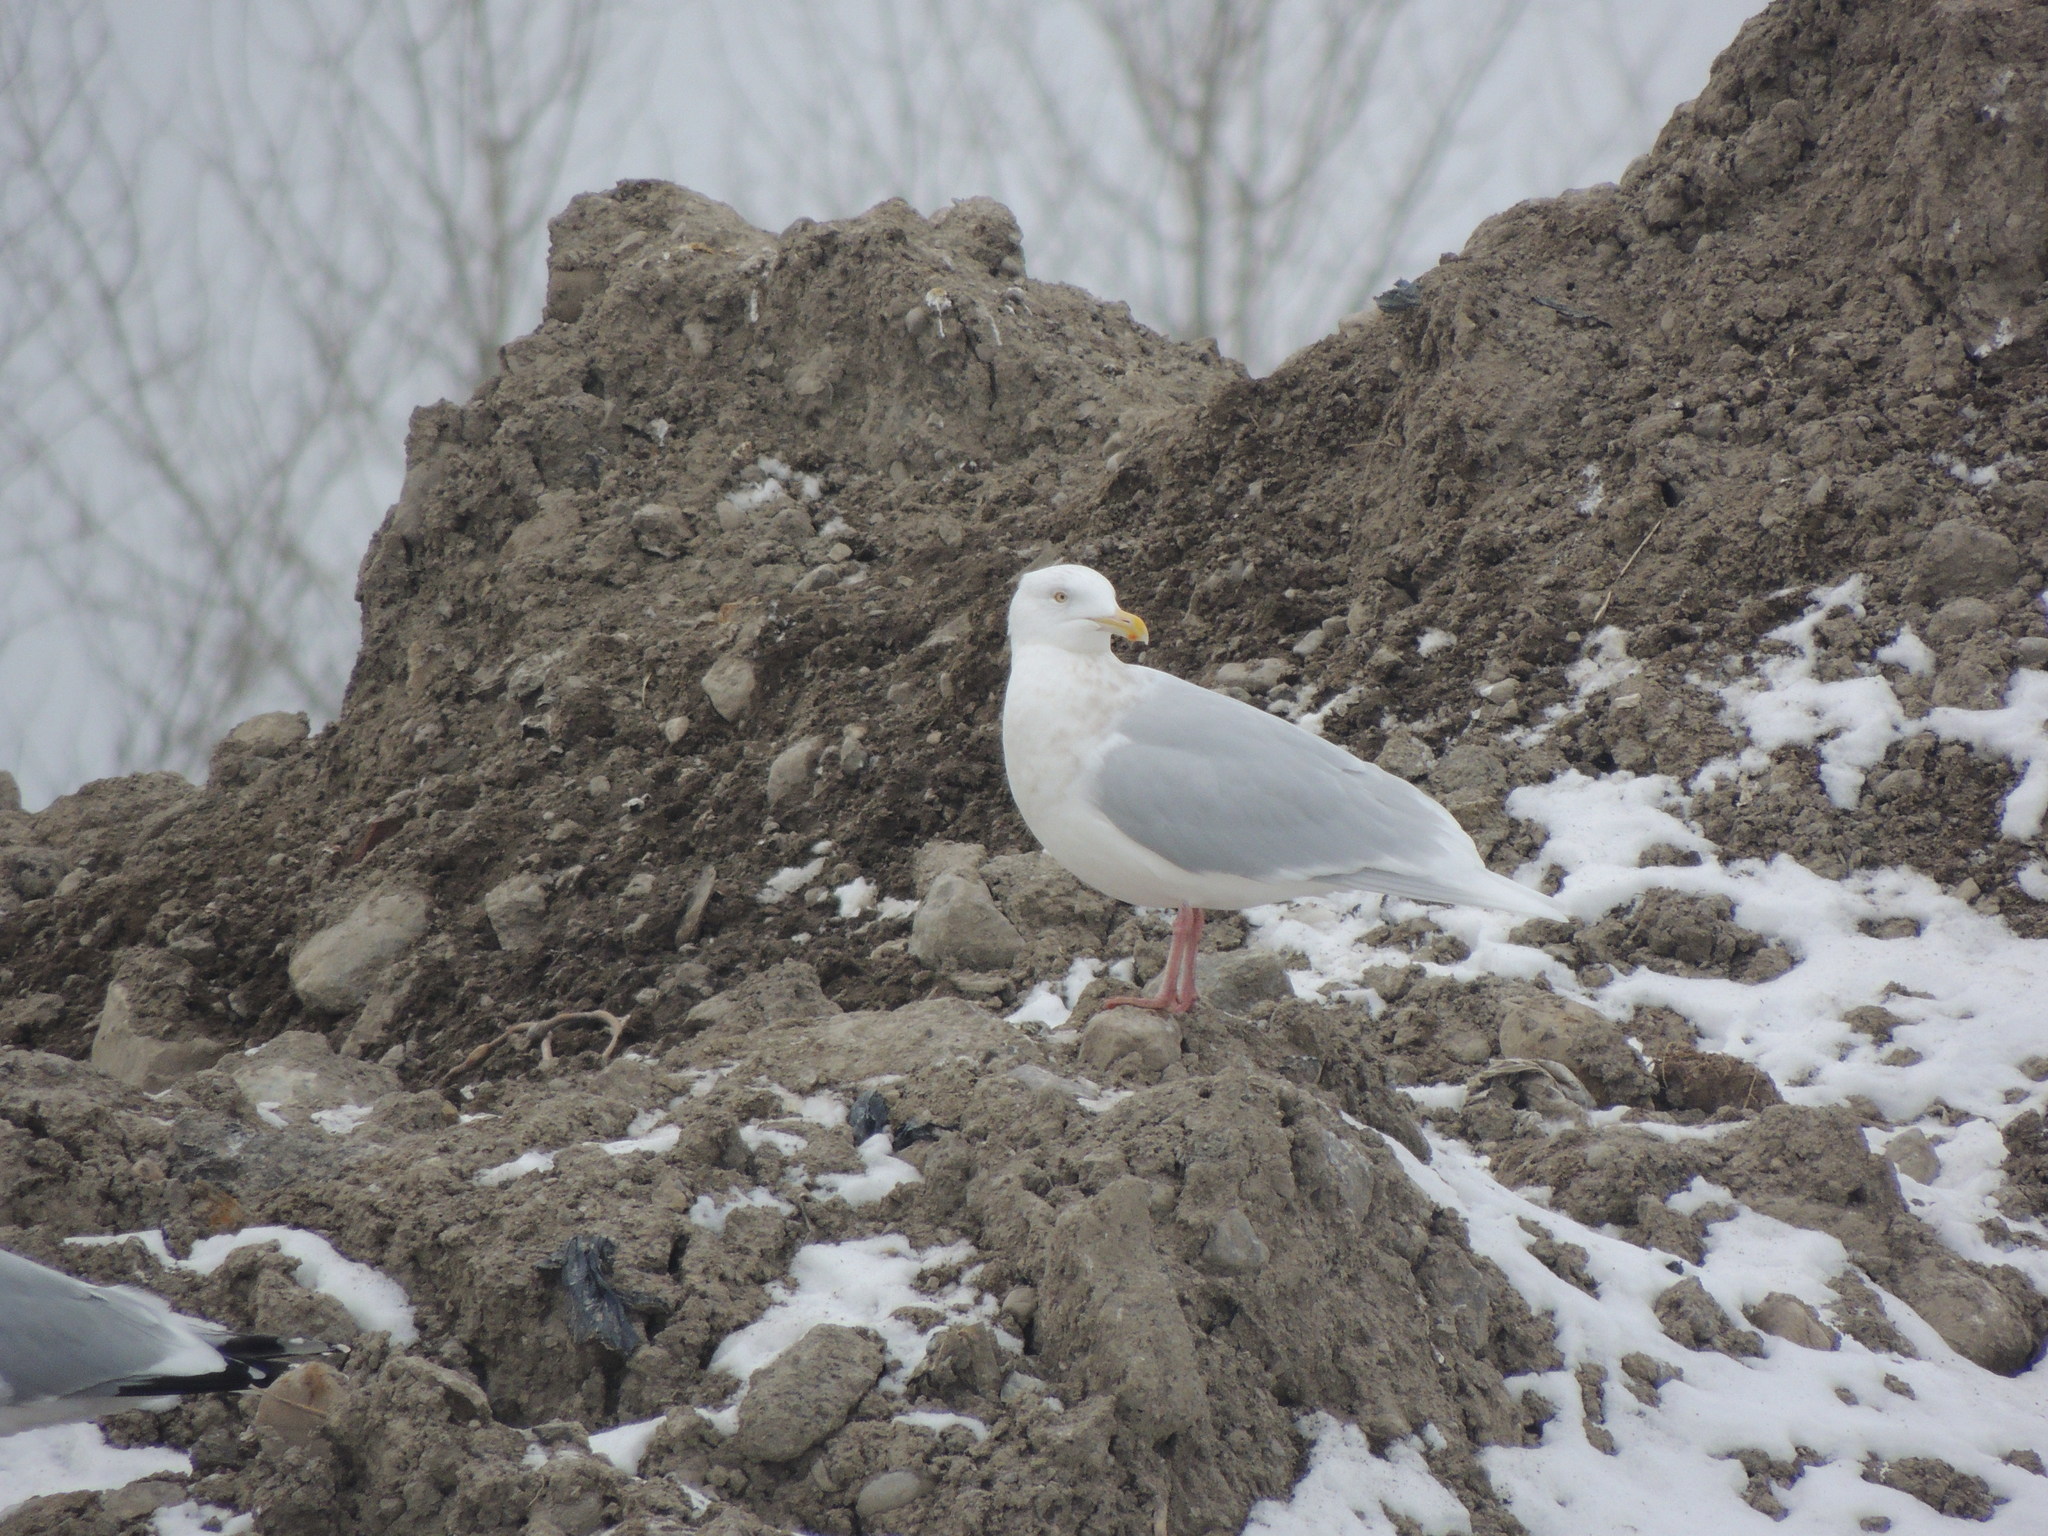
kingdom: Animalia
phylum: Chordata
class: Aves
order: Charadriiformes
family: Laridae
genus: Larus
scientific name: Larus hyperboreus
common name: Glaucous gull
